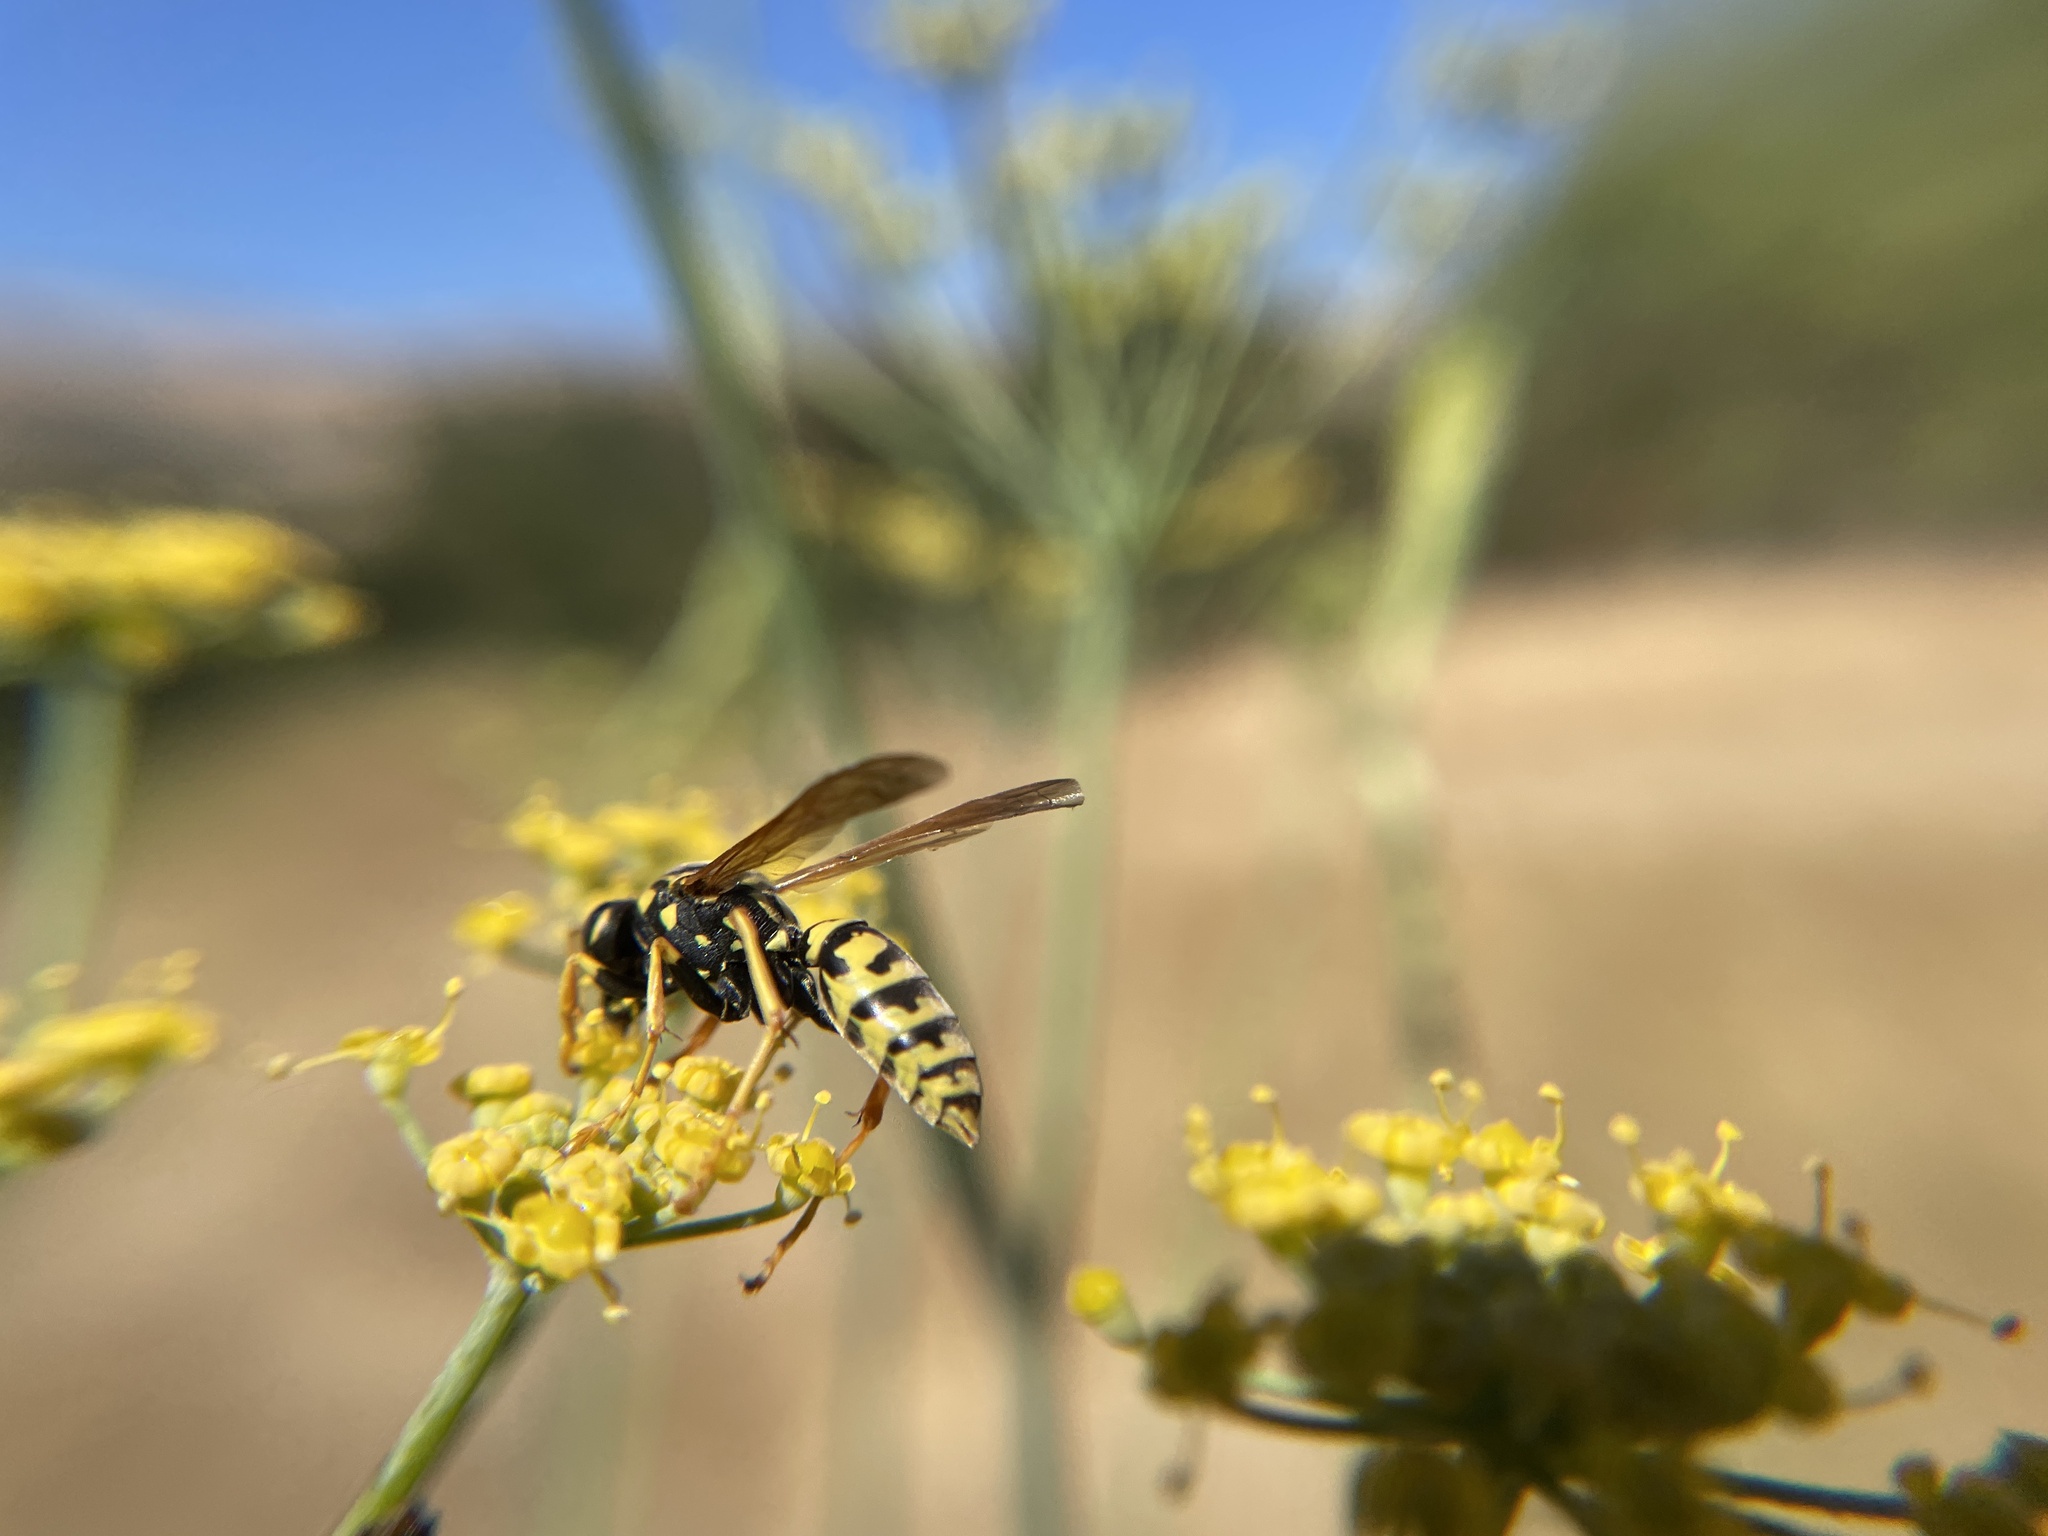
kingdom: Animalia
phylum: Arthropoda
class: Insecta
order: Hymenoptera
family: Eumenidae
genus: Polistes
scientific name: Polistes dominula
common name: Paper wasp
